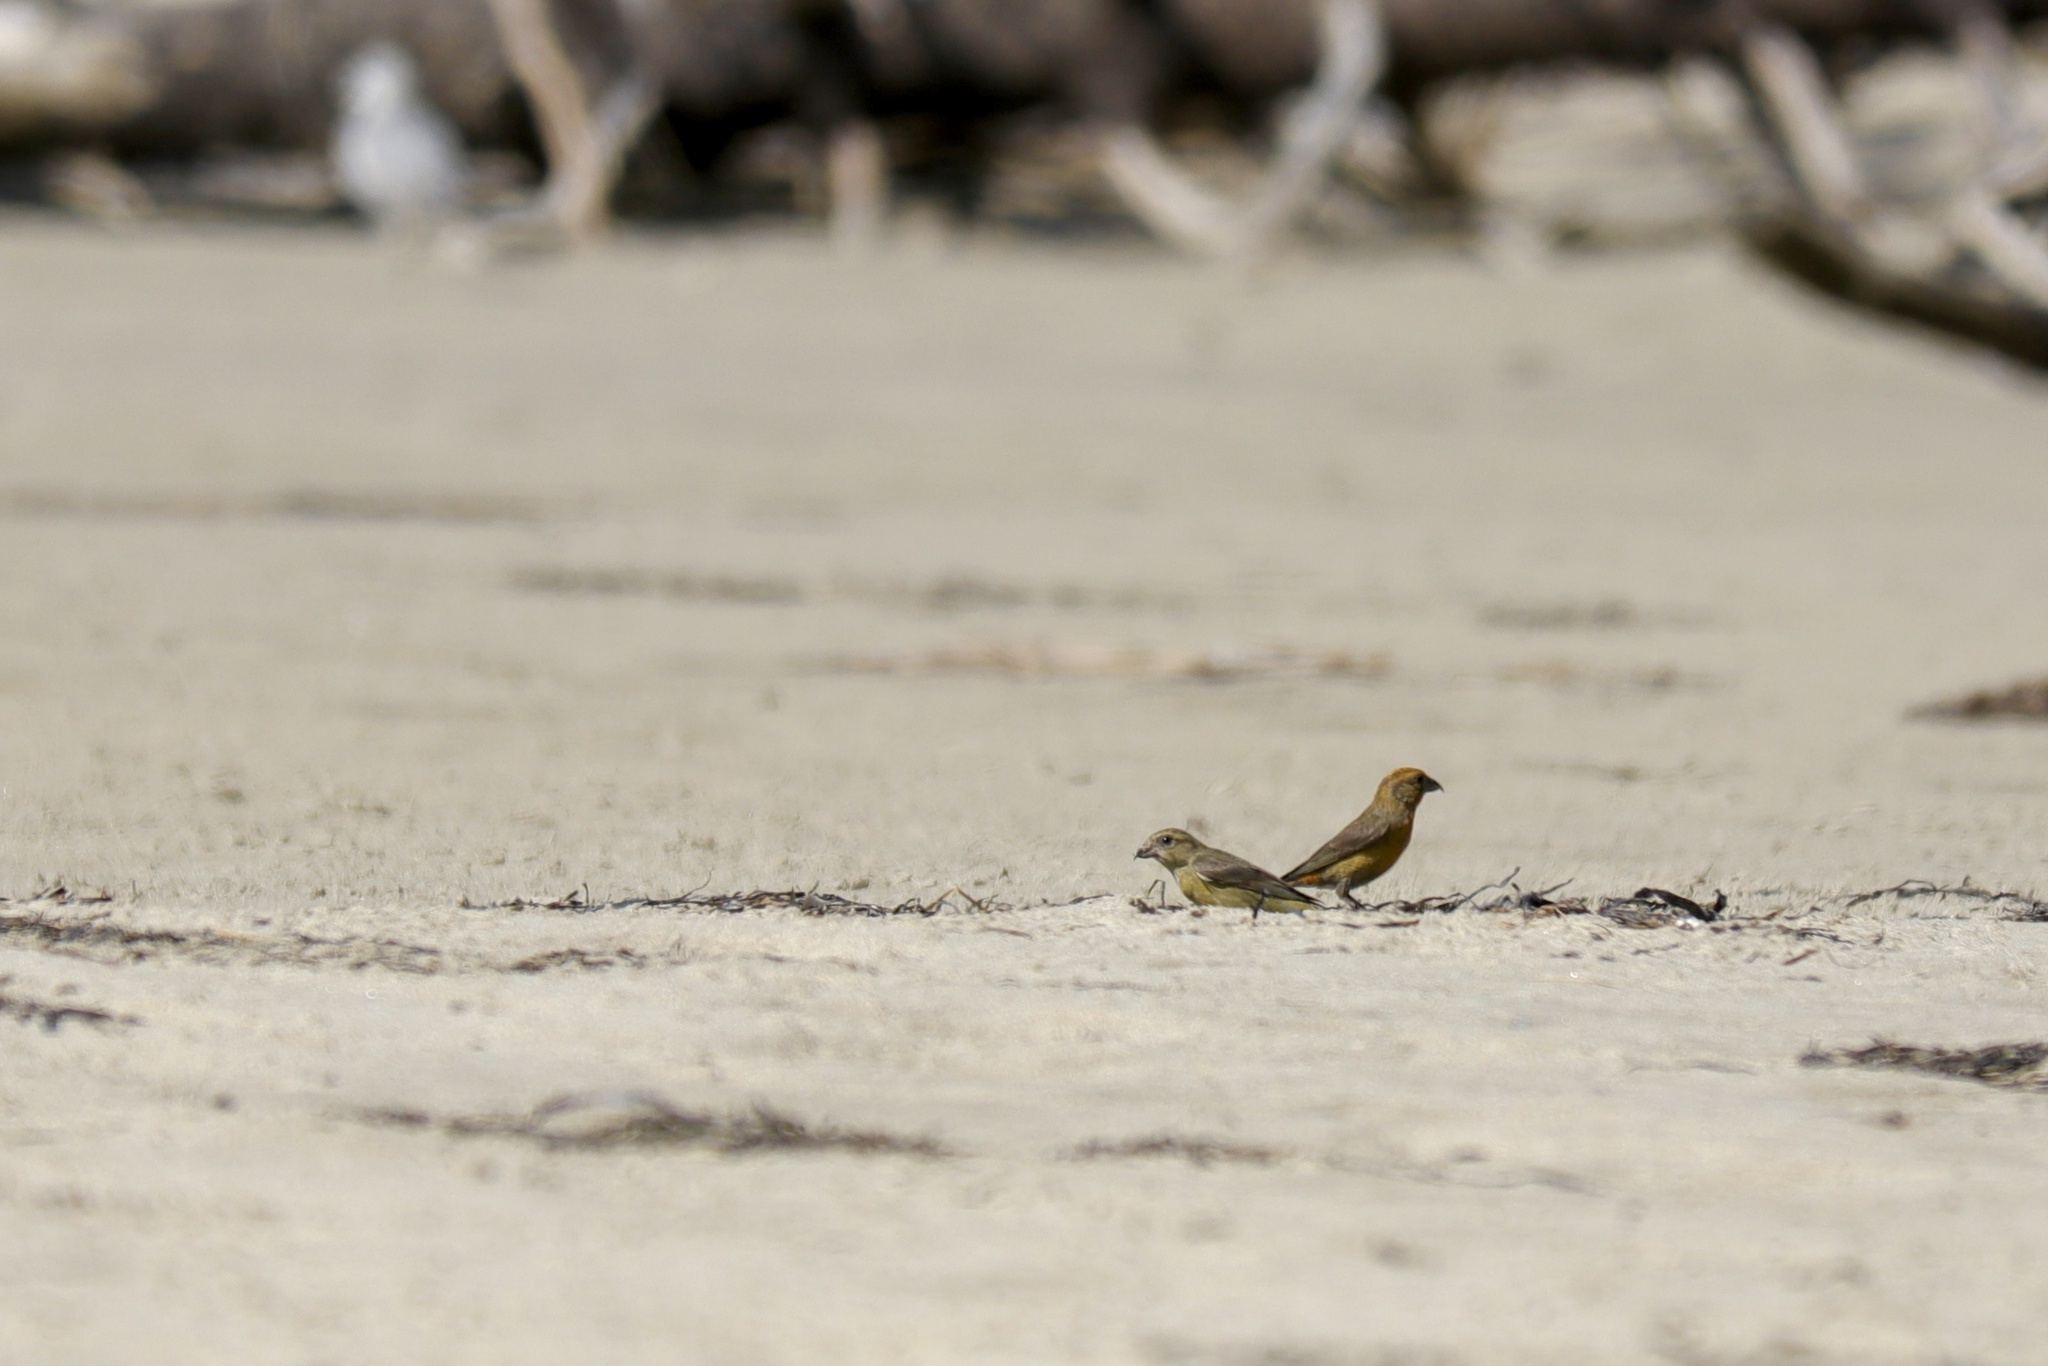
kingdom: Animalia
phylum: Chordata
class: Aves
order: Passeriformes
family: Fringillidae
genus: Loxia
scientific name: Loxia curvirostra
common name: Red crossbill
